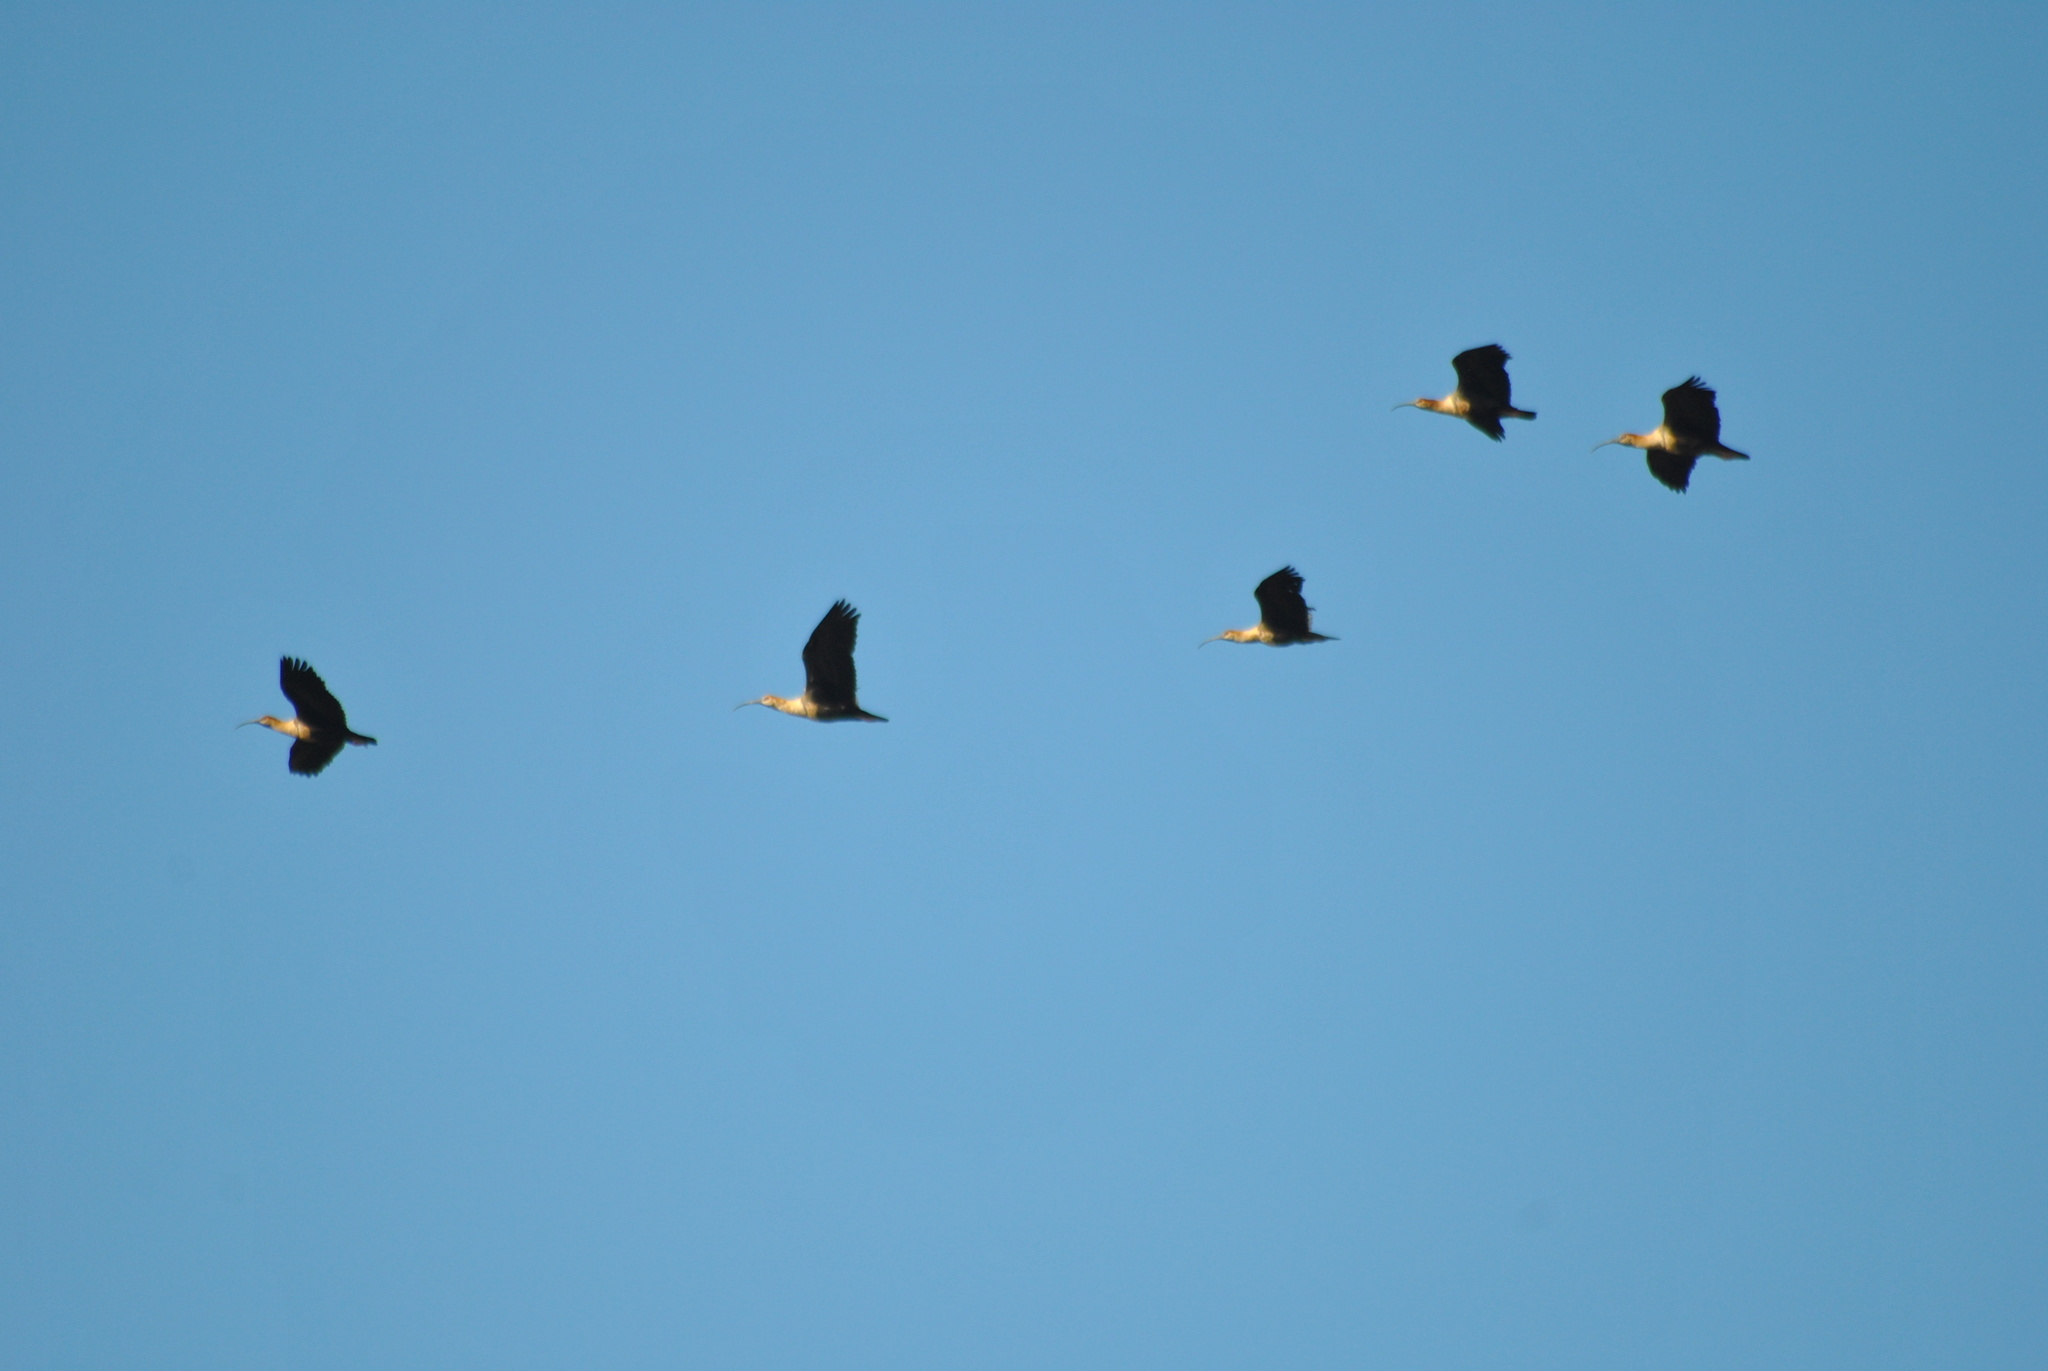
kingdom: Animalia
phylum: Chordata
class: Aves
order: Pelecaniformes
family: Threskiornithidae
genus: Theristicus
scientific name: Theristicus melanopis
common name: Black-faced ibis
